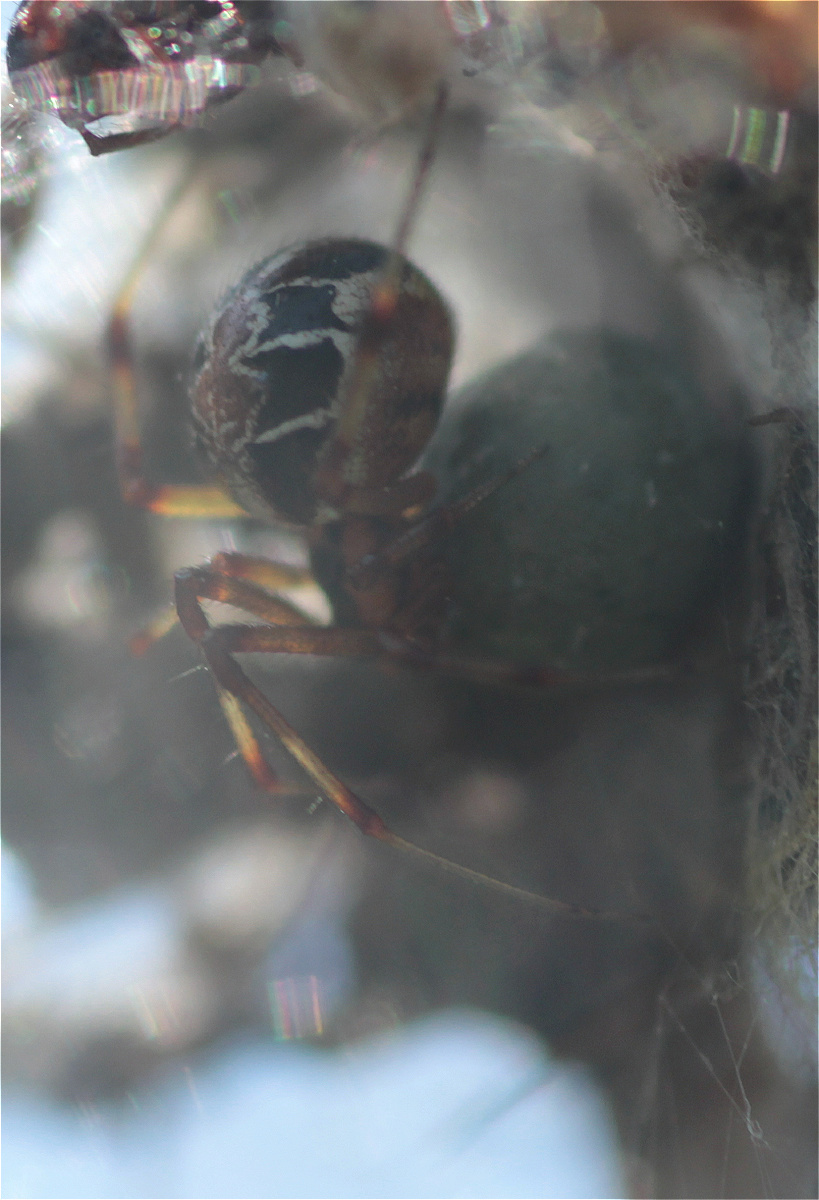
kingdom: Animalia
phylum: Arthropoda
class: Arachnida
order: Araneae
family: Theridiidae
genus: Phylloneta
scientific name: Phylloneta
